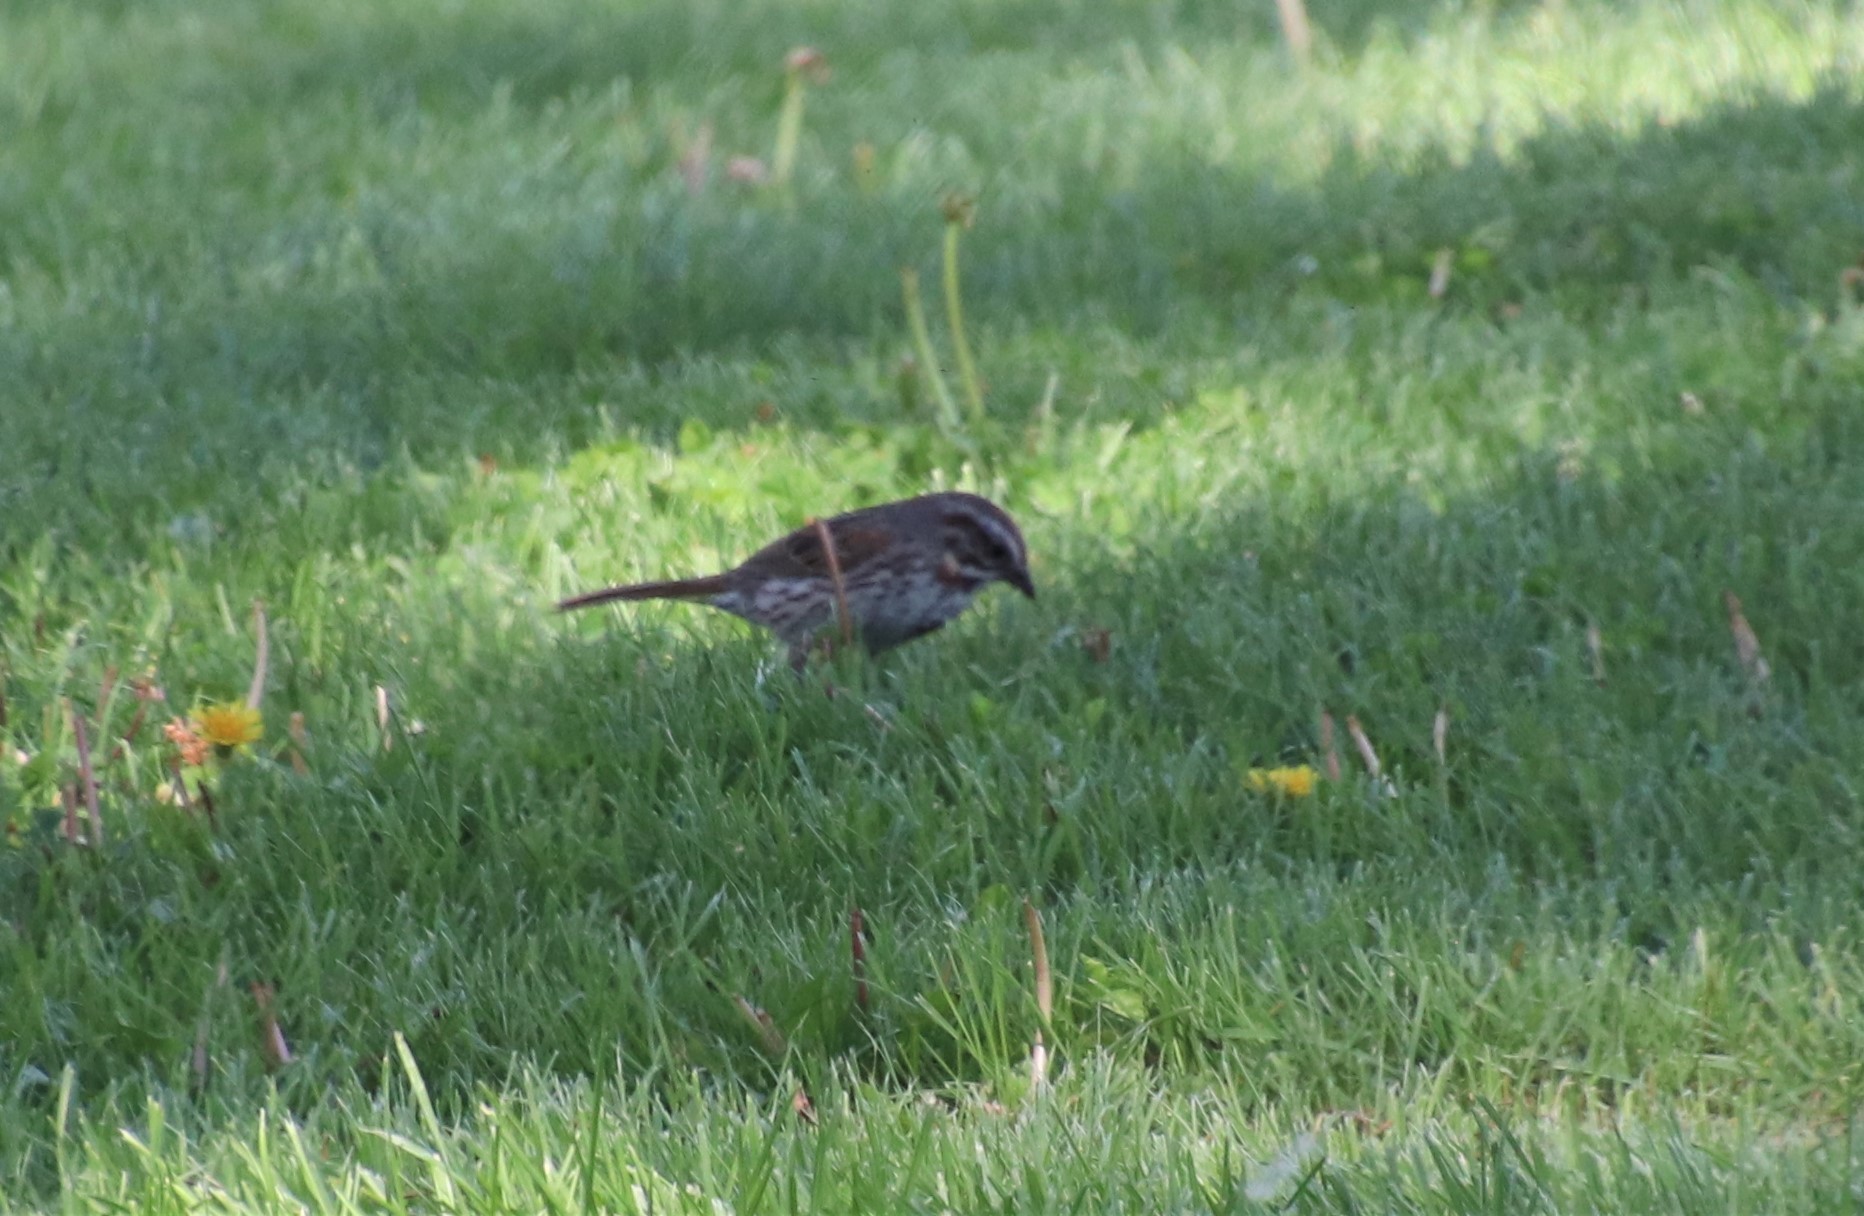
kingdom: Animalia
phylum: Chordata
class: Aves
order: Passeriformes
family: Passerellidae
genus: Melospiza
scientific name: Melospiza melodia
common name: Song sparrow
